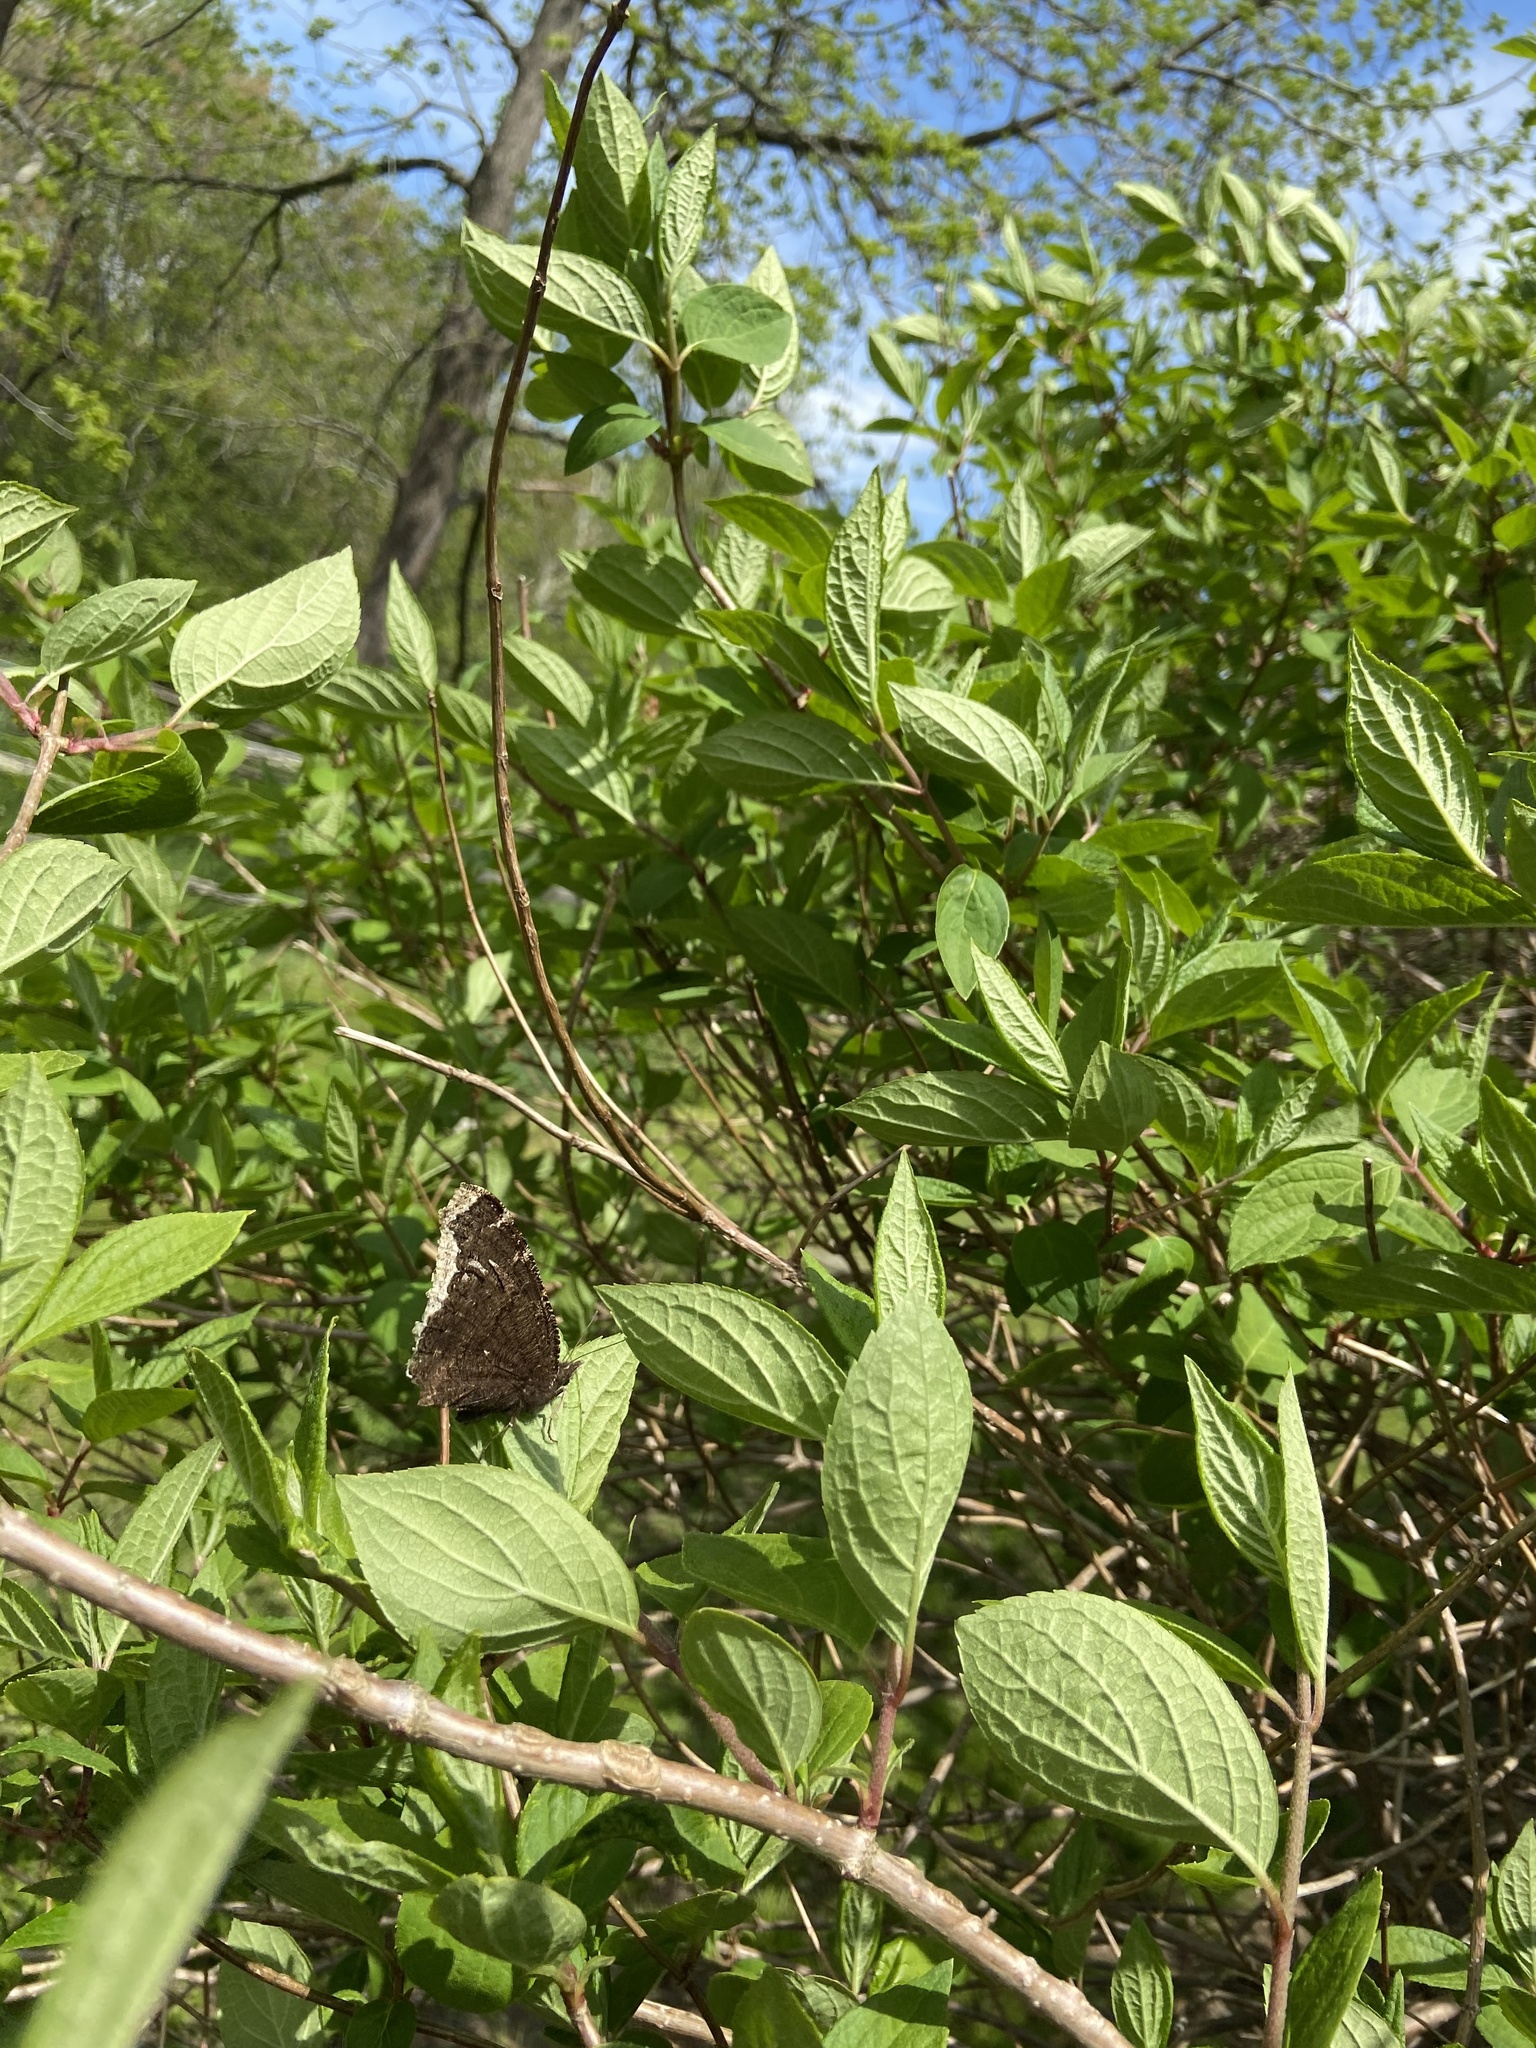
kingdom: Animalia
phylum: Arthropoda
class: Insecta
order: Lepidoptera
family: Nymphalidae
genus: Nymphalis
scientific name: Nymphalis antiopa
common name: Camberwell beauty
